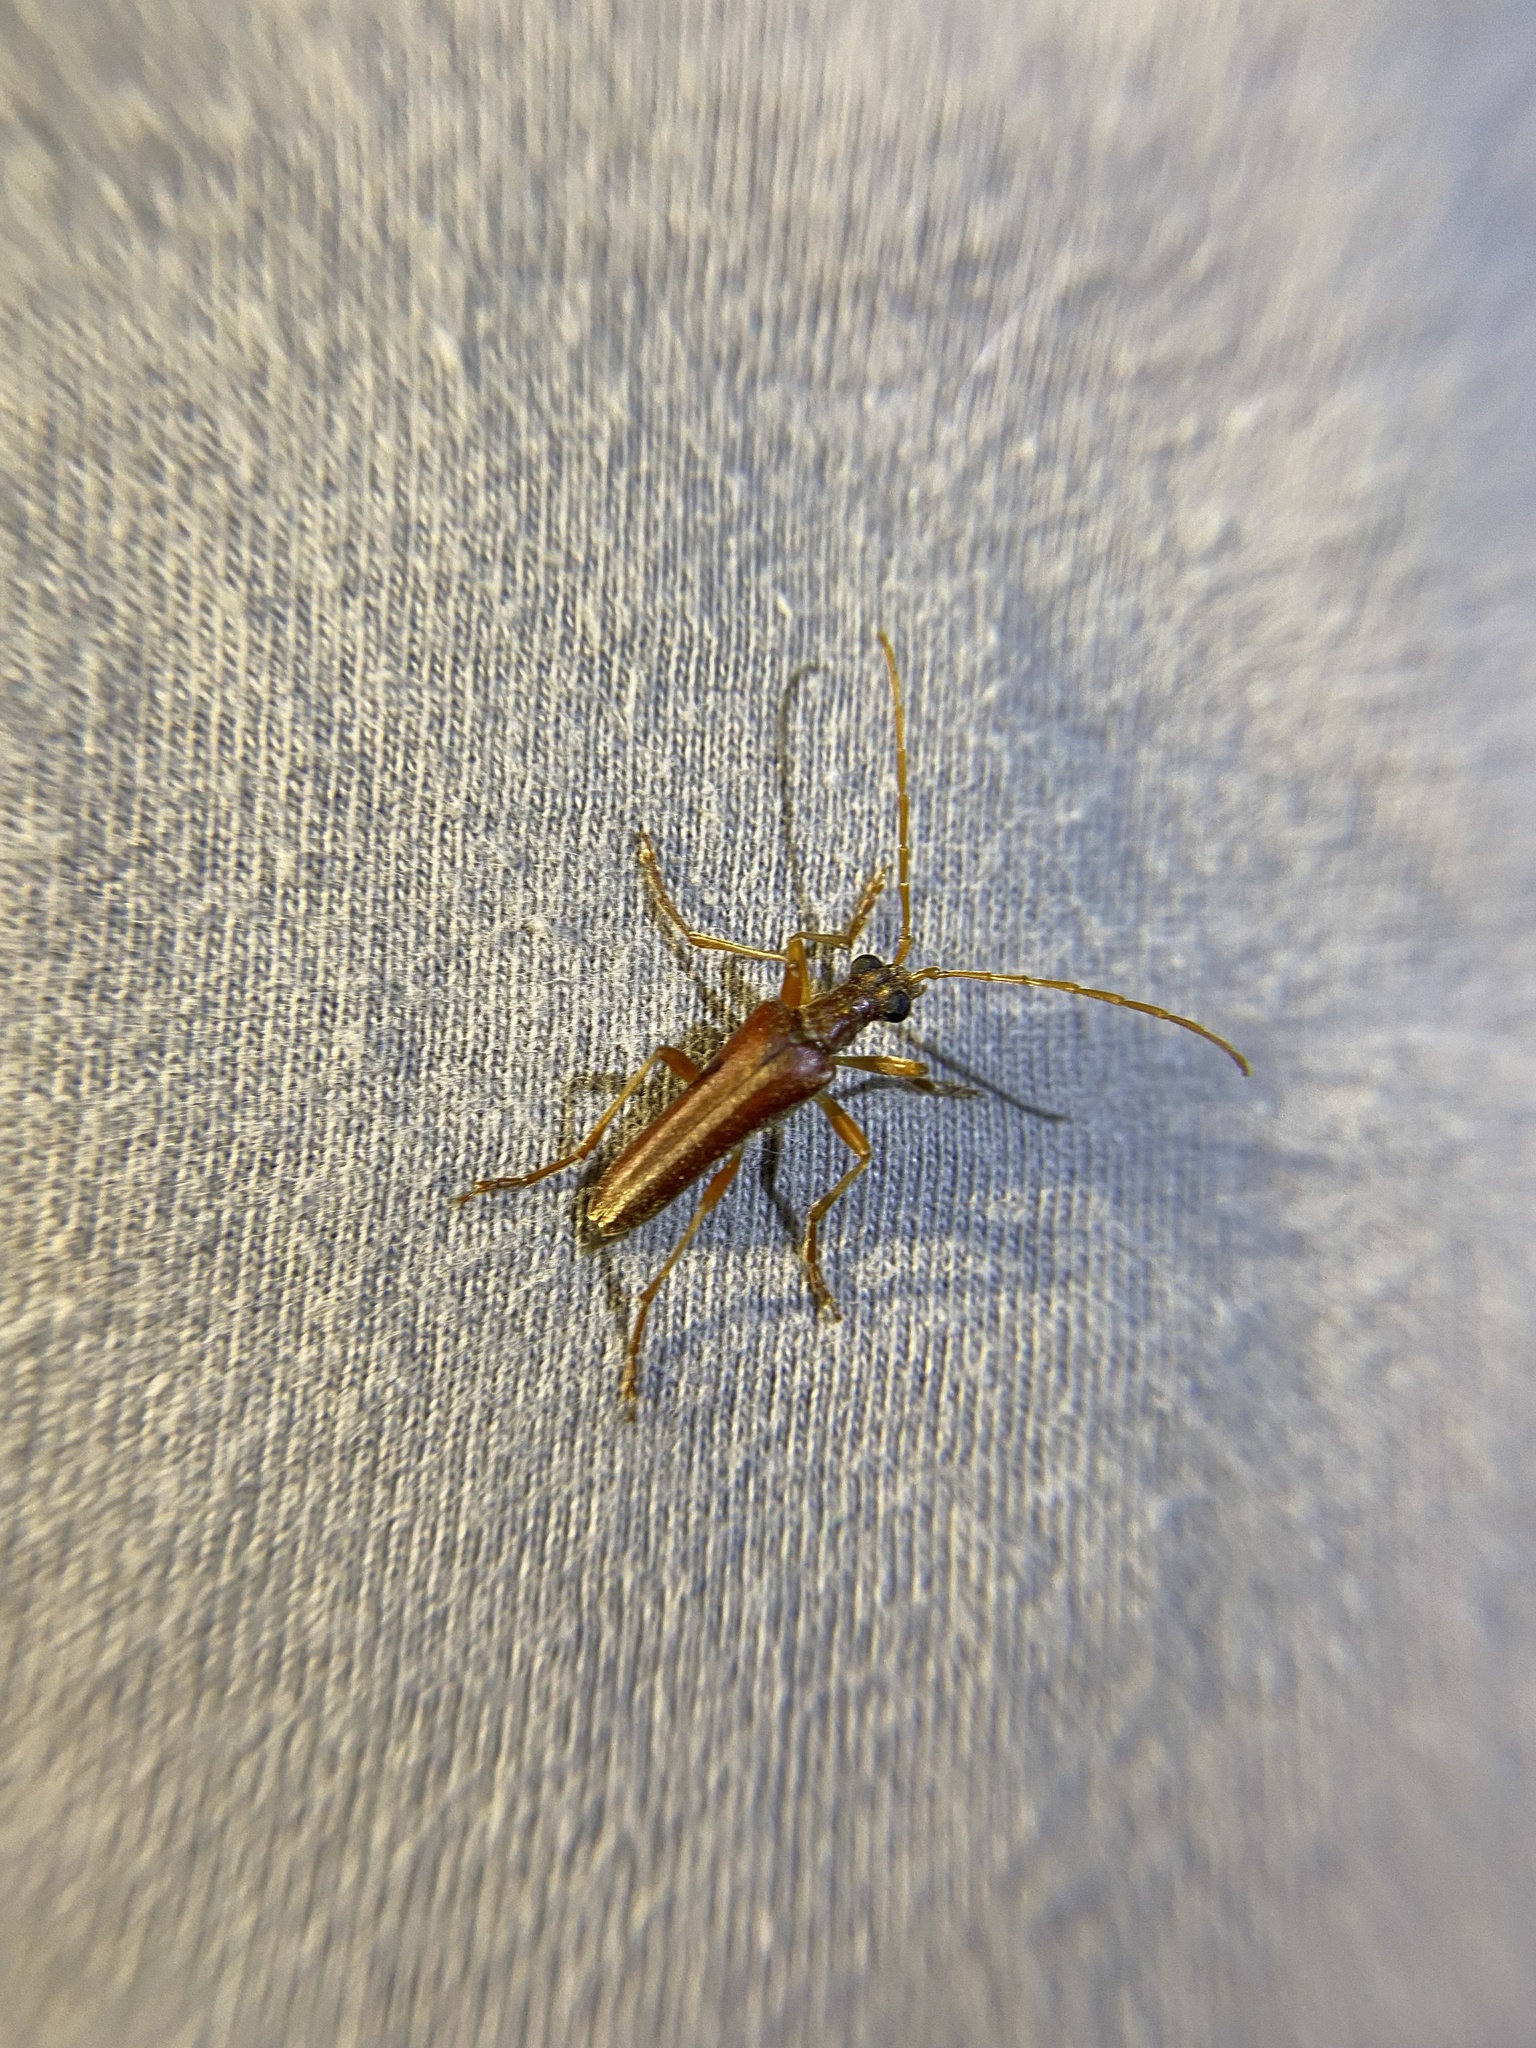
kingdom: Animalia
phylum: Arthropoda
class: Insecta
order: Coleoptera
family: Cerambycidae
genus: Stenocorus
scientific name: Stenocorus cinnamopterus
